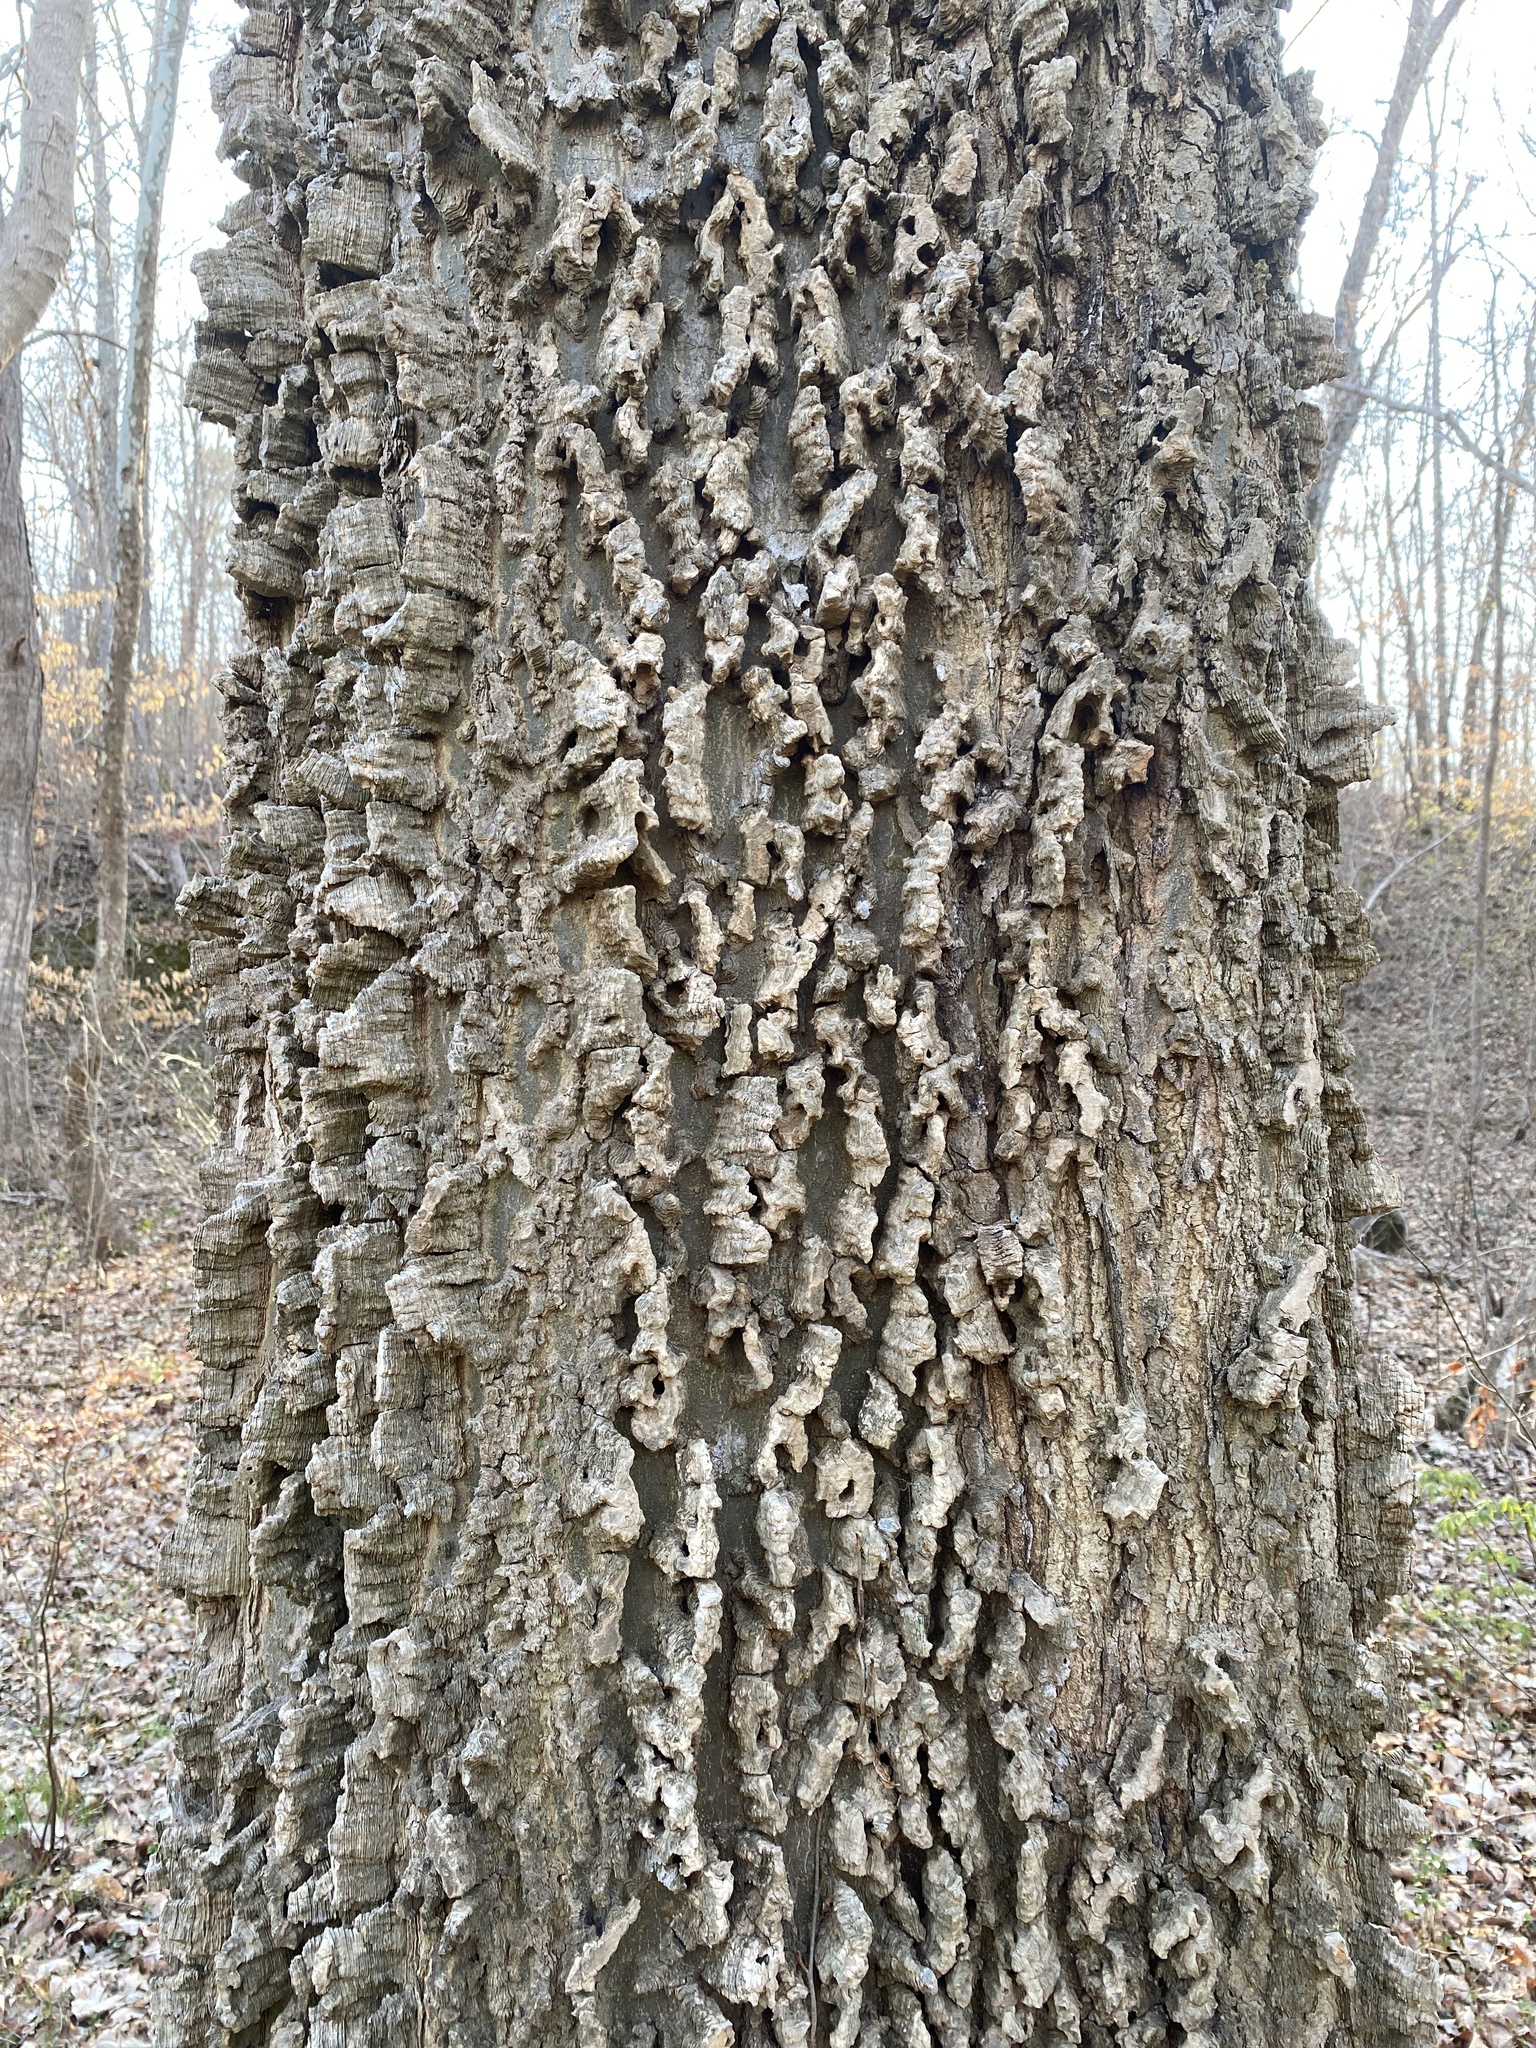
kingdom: Plantae
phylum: Tracheophyta
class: Magnoliopsida
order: Rosales
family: Cannabaceae
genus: Celtis
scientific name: Celtis laevigata
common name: Sugarberry
